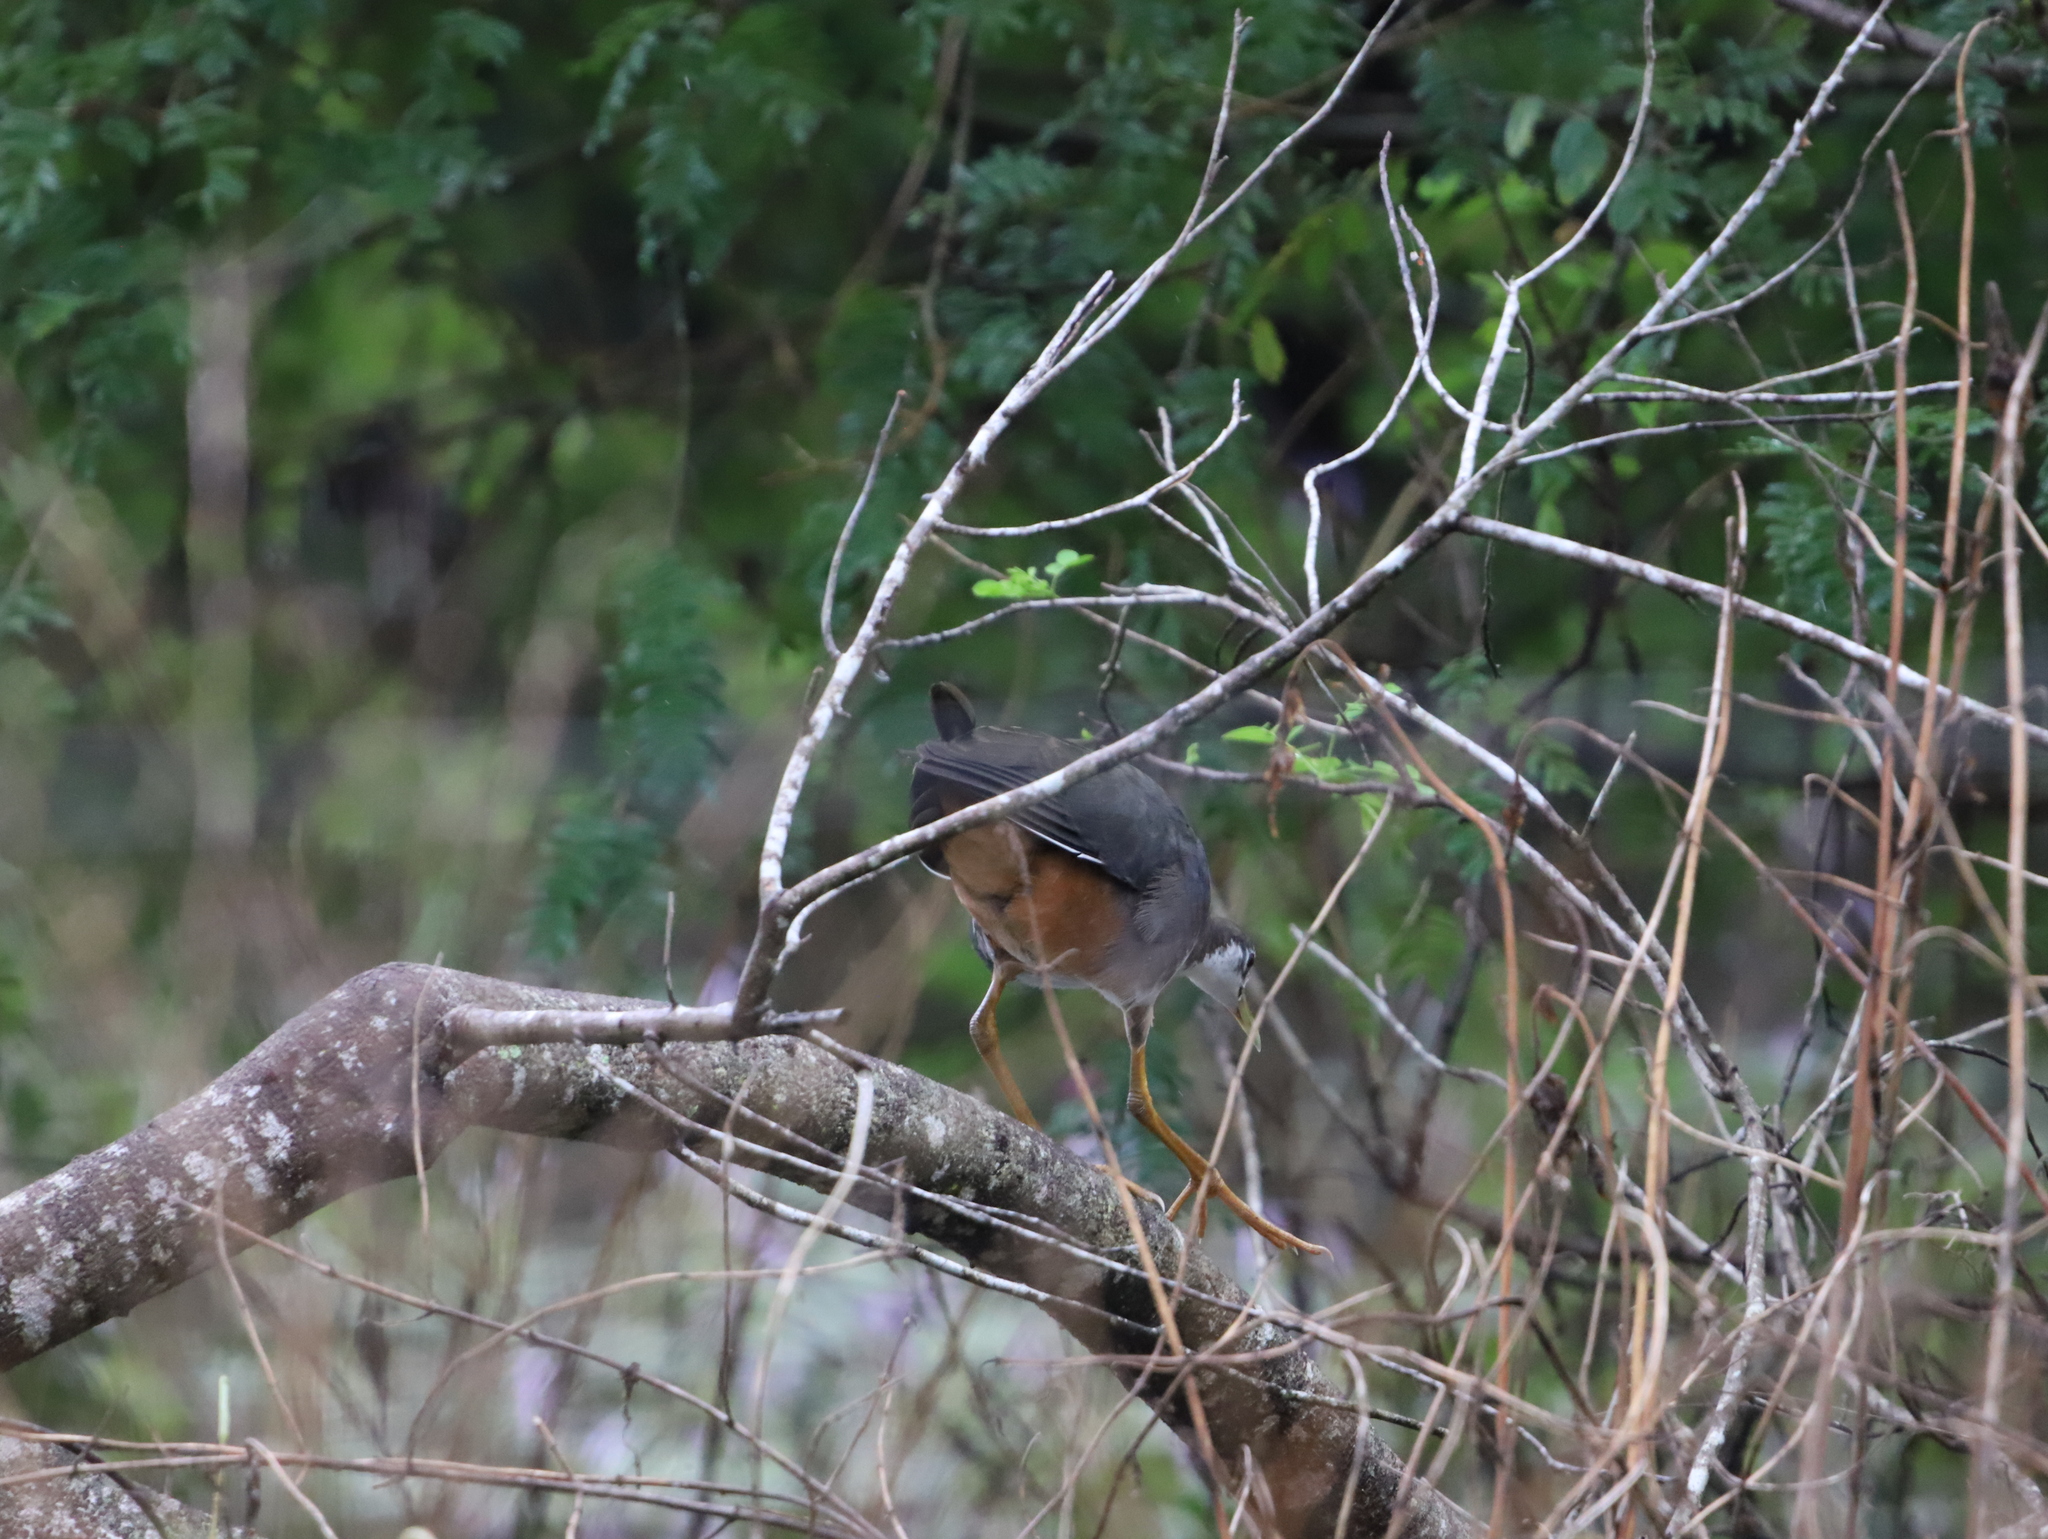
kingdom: Animalia
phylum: Chordata
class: Aves
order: Gruiformes
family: Rallidae
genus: Amaurornis
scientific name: Amaurornis phoenicurus
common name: White-breasted waterhen
